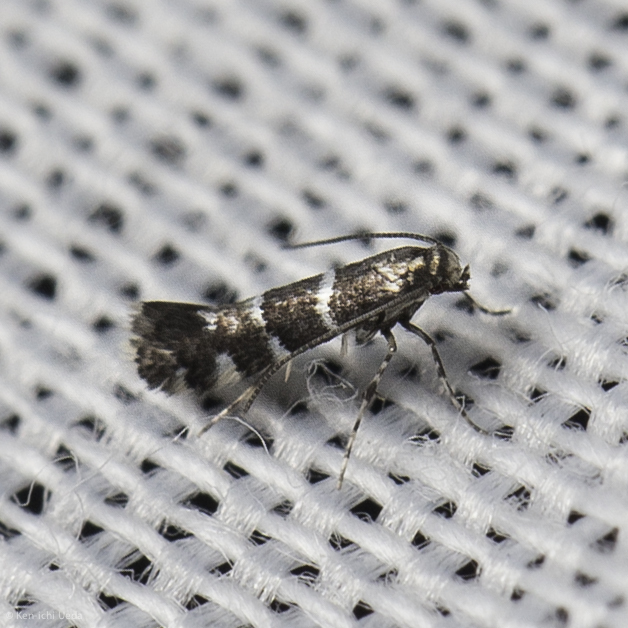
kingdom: Animalia
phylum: Arthropoda
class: Insecta
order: Lepidoptera
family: Gracillariidae
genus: Marmara
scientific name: Marmara arbutiella
